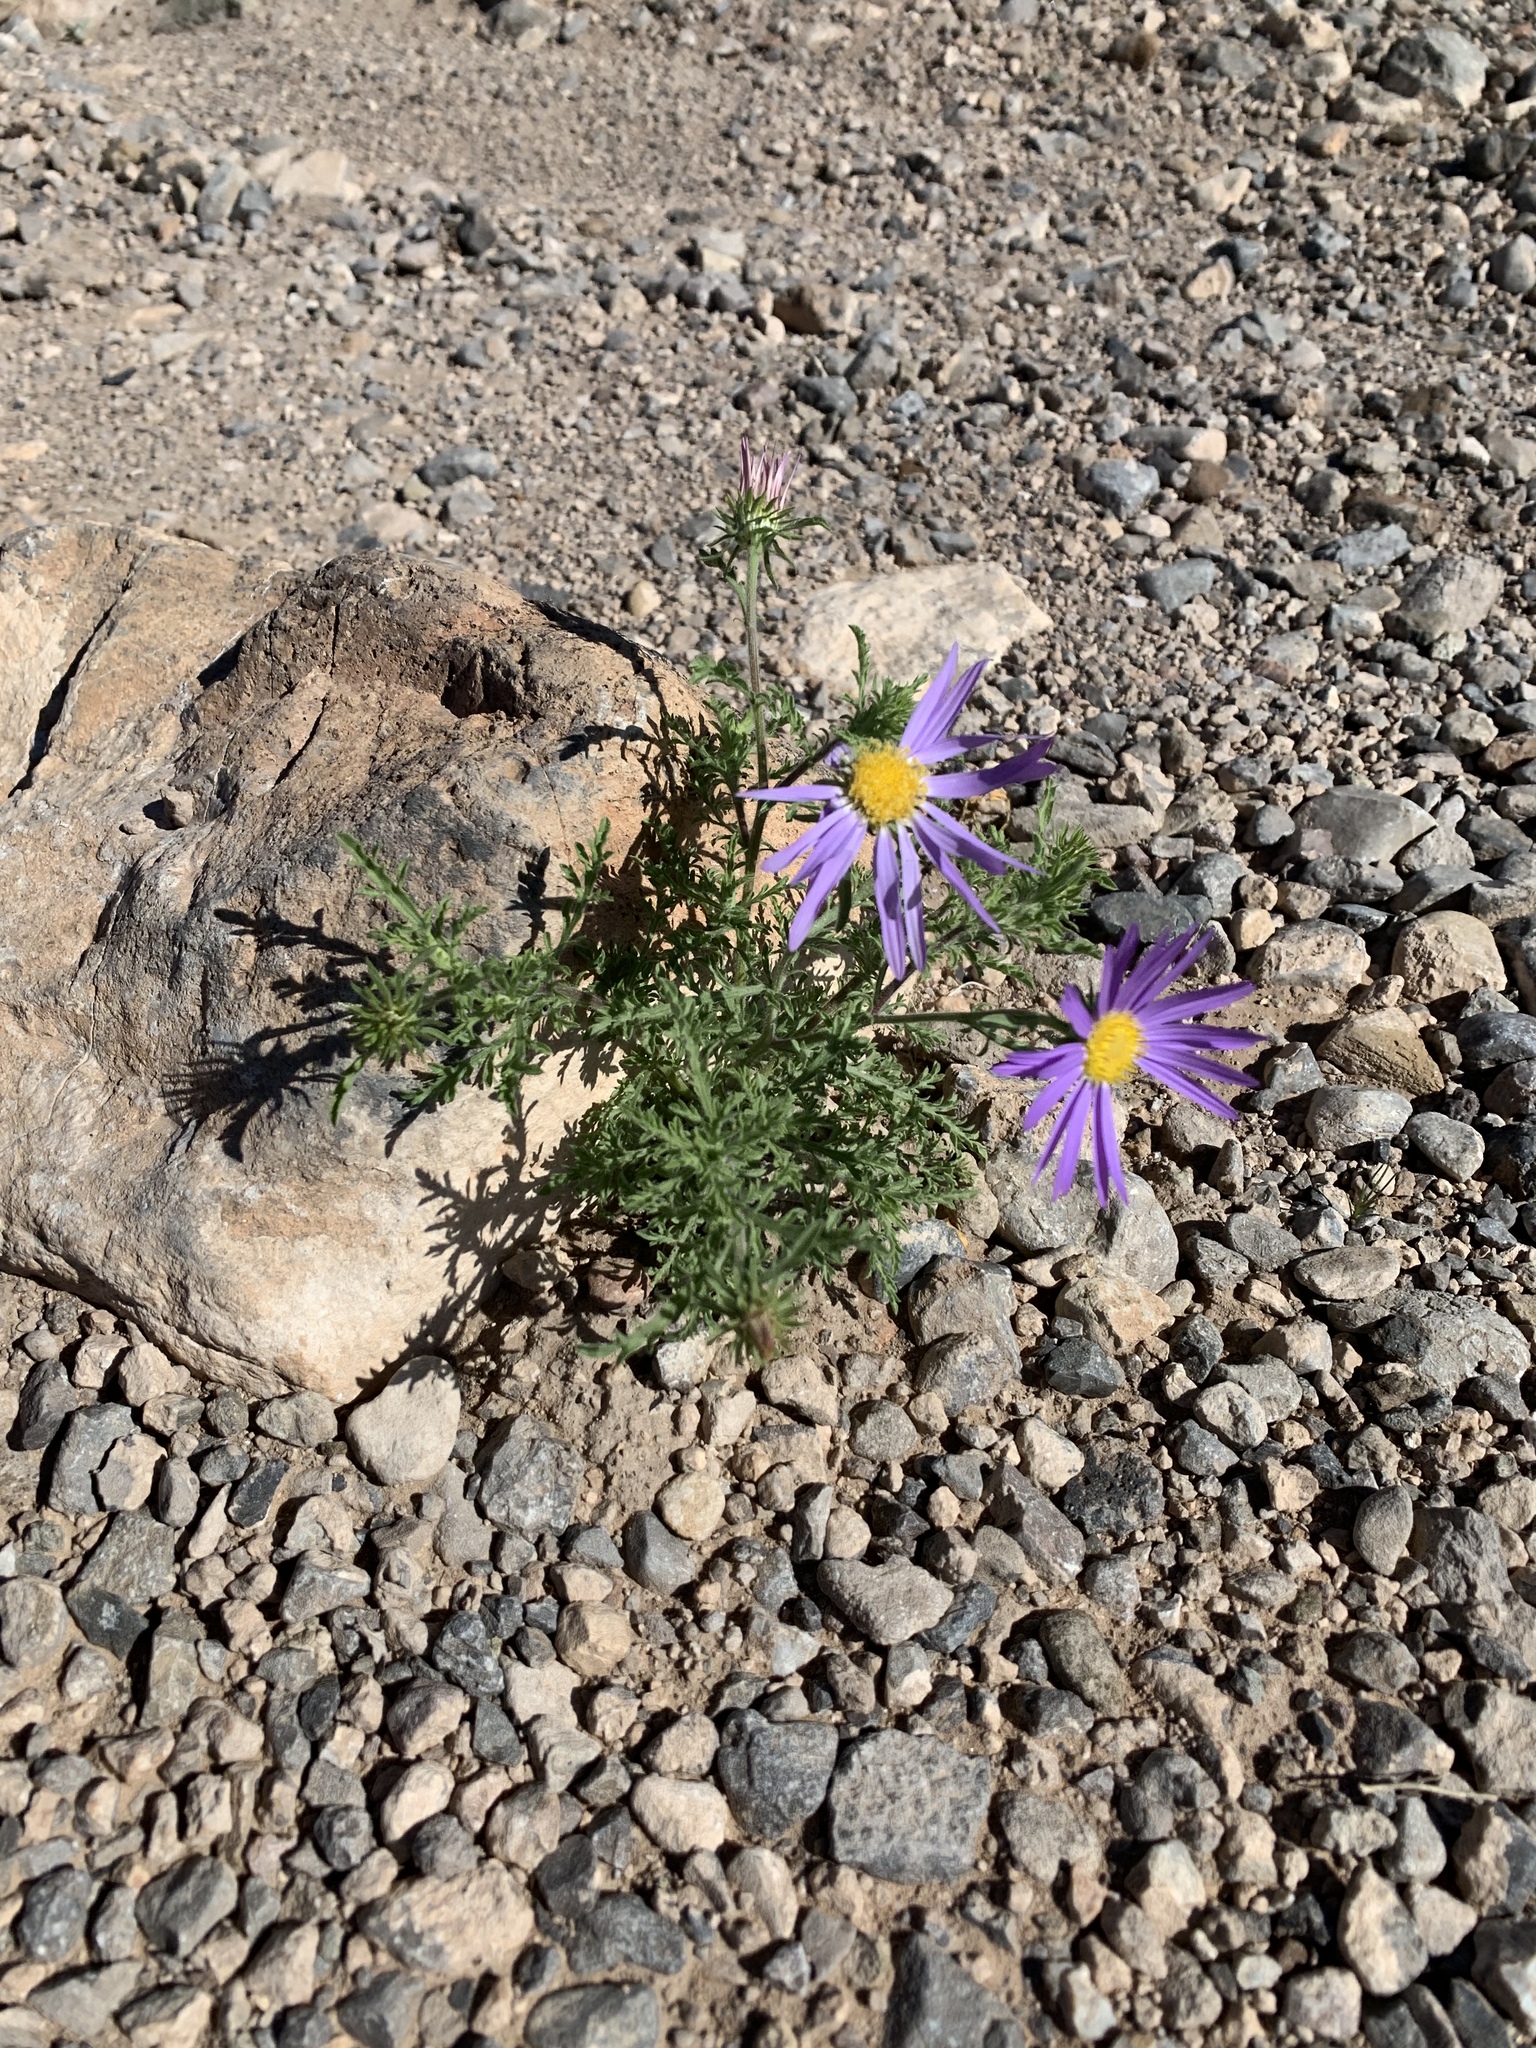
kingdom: Plantae
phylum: Tracheophyta
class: Magnoliopsida
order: Asterales
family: Asteraceae
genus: Machaeranthera
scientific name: Machaeranthera tanacetifolia
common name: Tansy-aster
